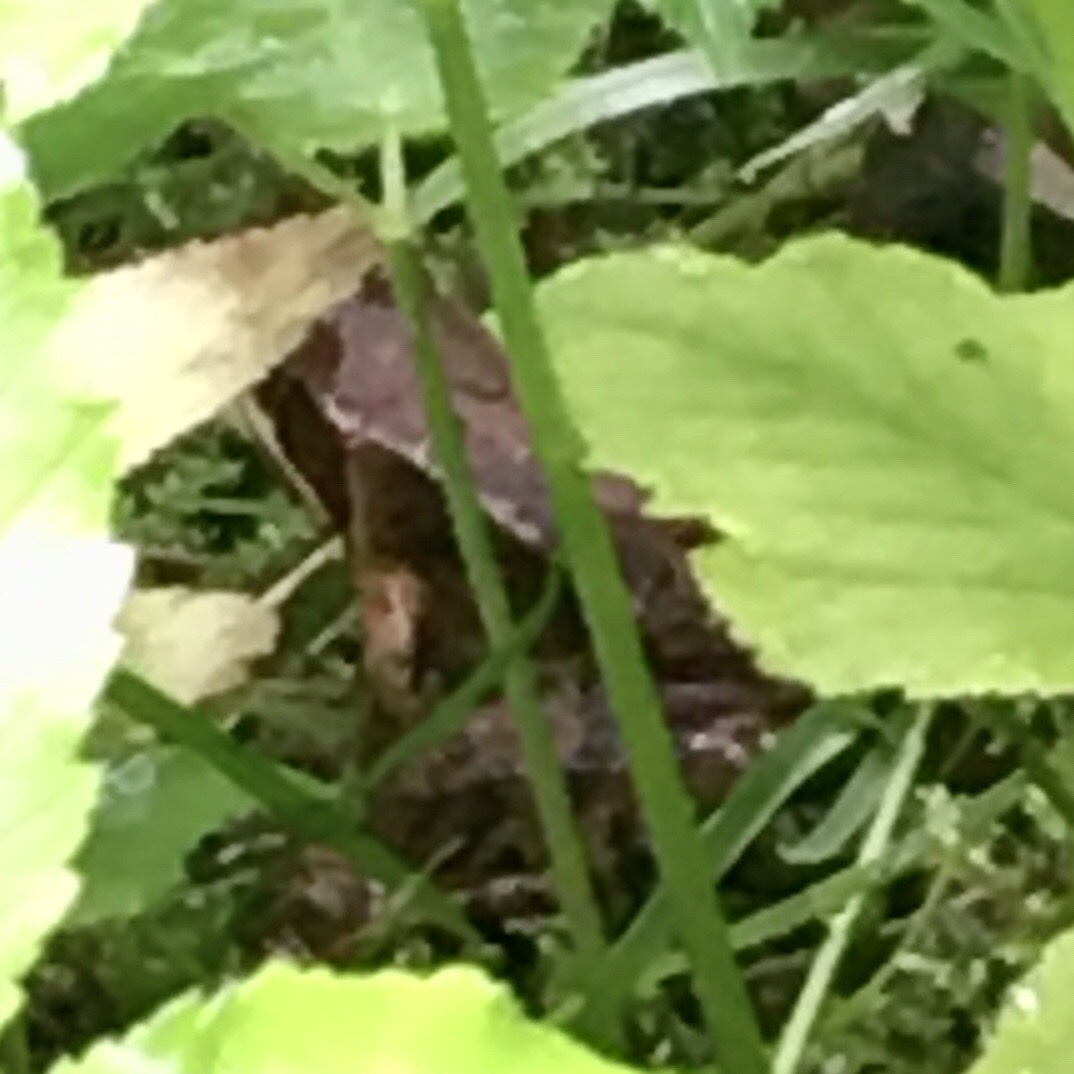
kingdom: Animalia
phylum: Chordata
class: Amphibia
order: Anura
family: Ranidae
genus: Rana
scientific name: Rana
